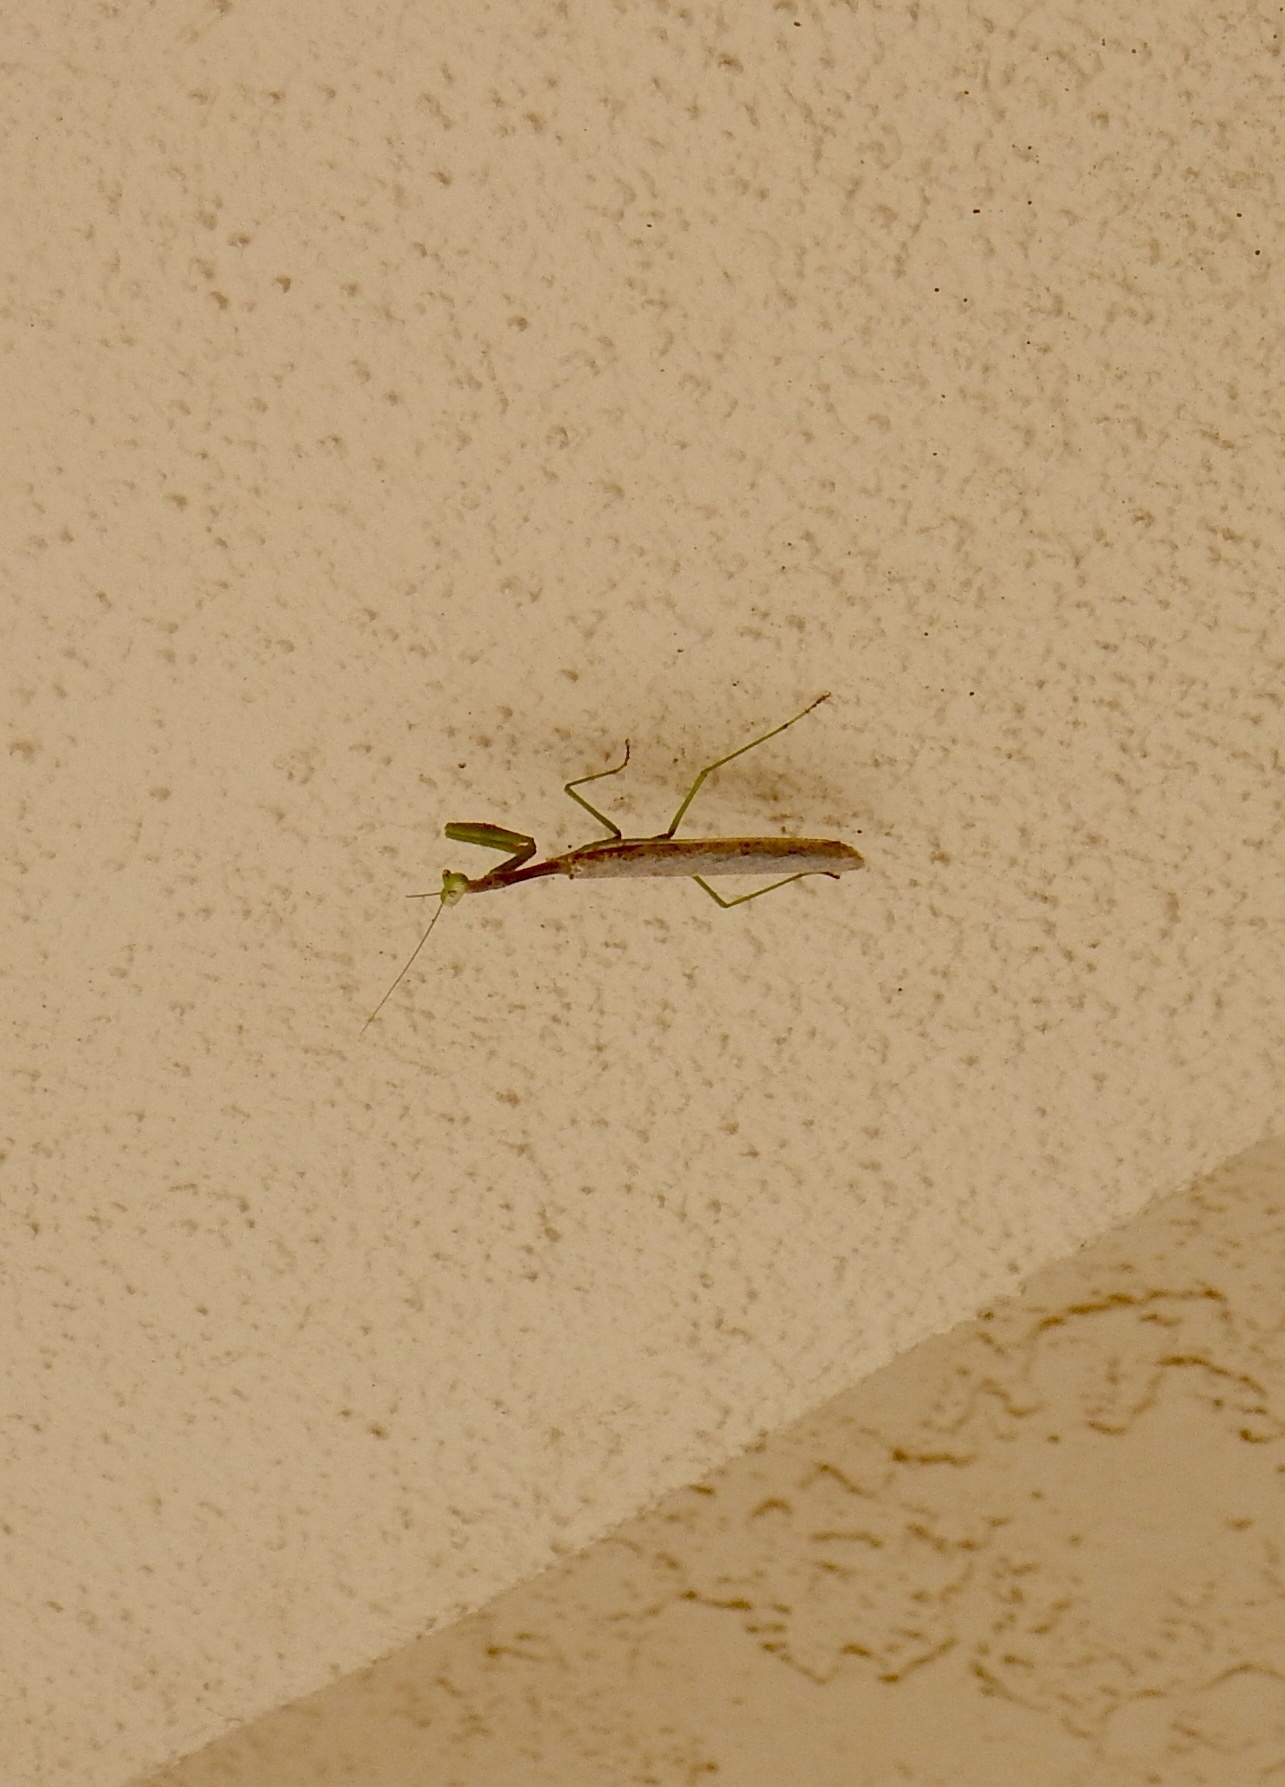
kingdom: Animalia
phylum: Arthropoda
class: Insecta
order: Mantodea
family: Mantidae
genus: Stagmomantis
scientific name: Stagmomantis californica
